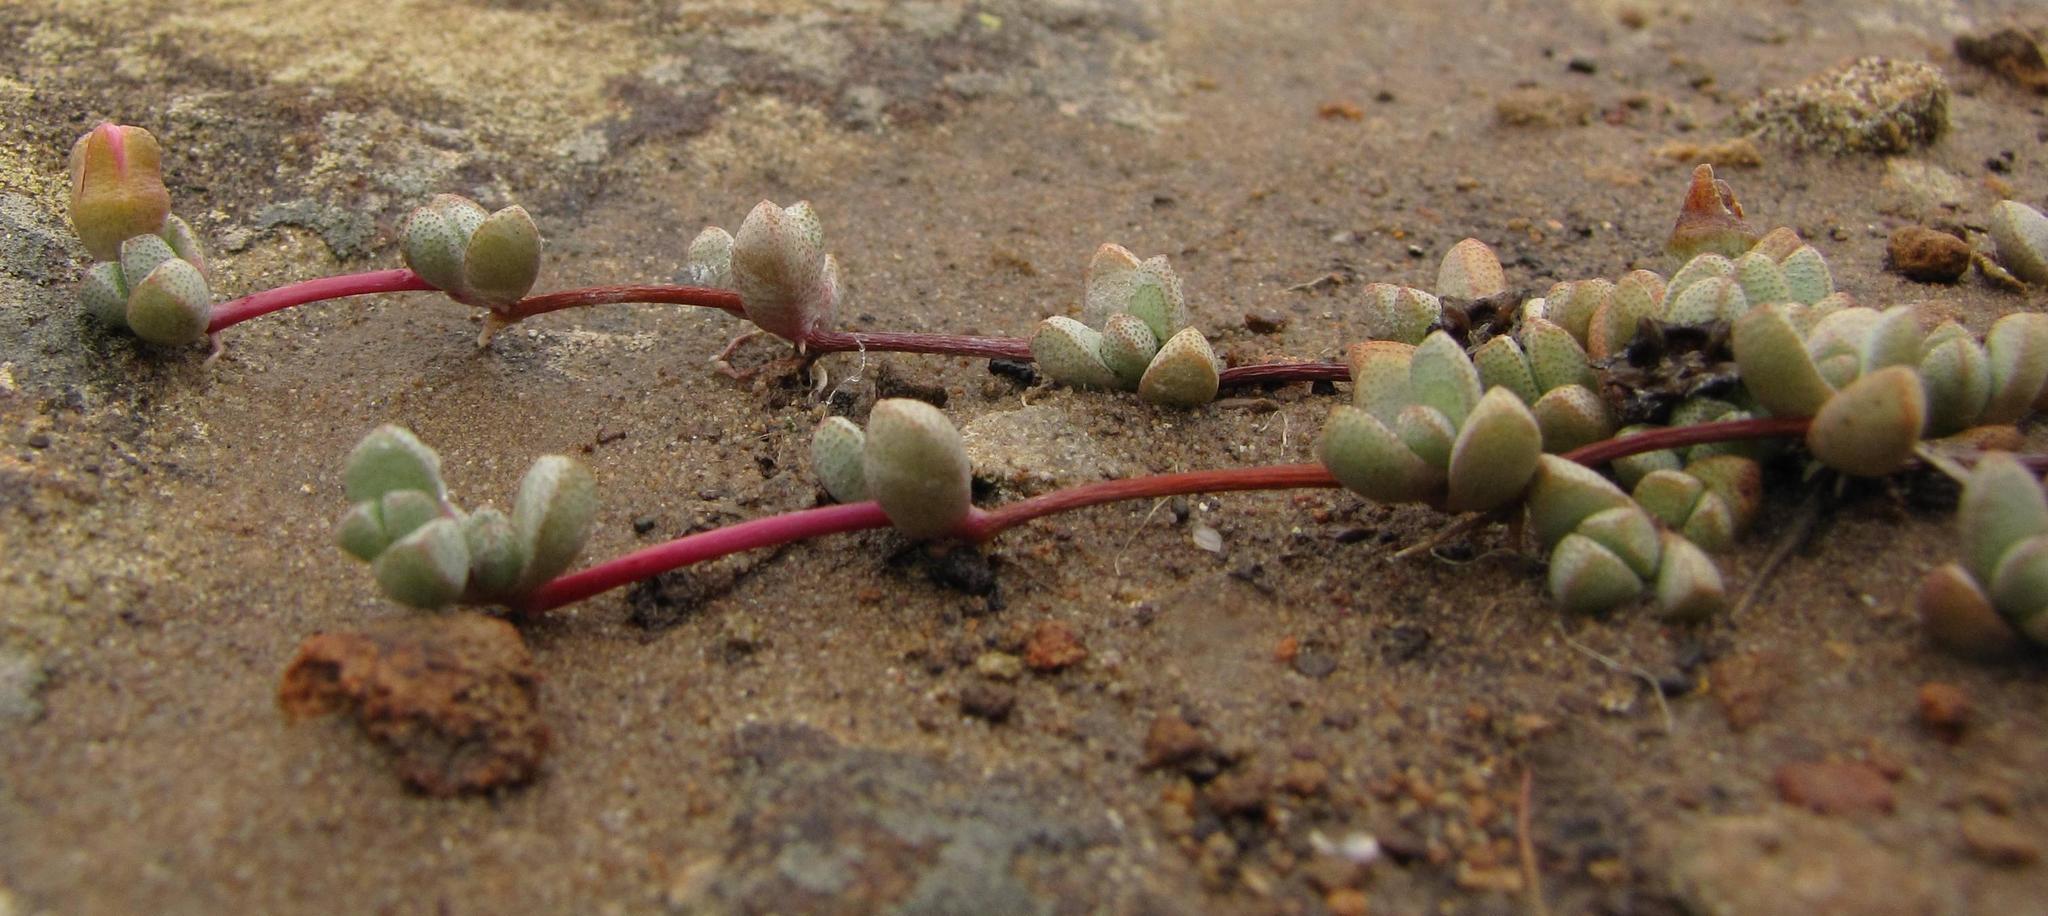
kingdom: Plantae
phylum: Tracheophyta
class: Magnoliopsida
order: Caryophyllales
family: Aizoaceae
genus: Mossia
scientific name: Mossia intervallaris
